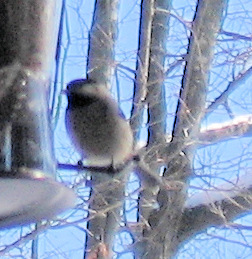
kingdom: Animalia
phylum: Chordata
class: Aves
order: Passeriformes
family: Paridae
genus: Poecile
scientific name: Poecile carolinensis
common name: Carolina chickadee
